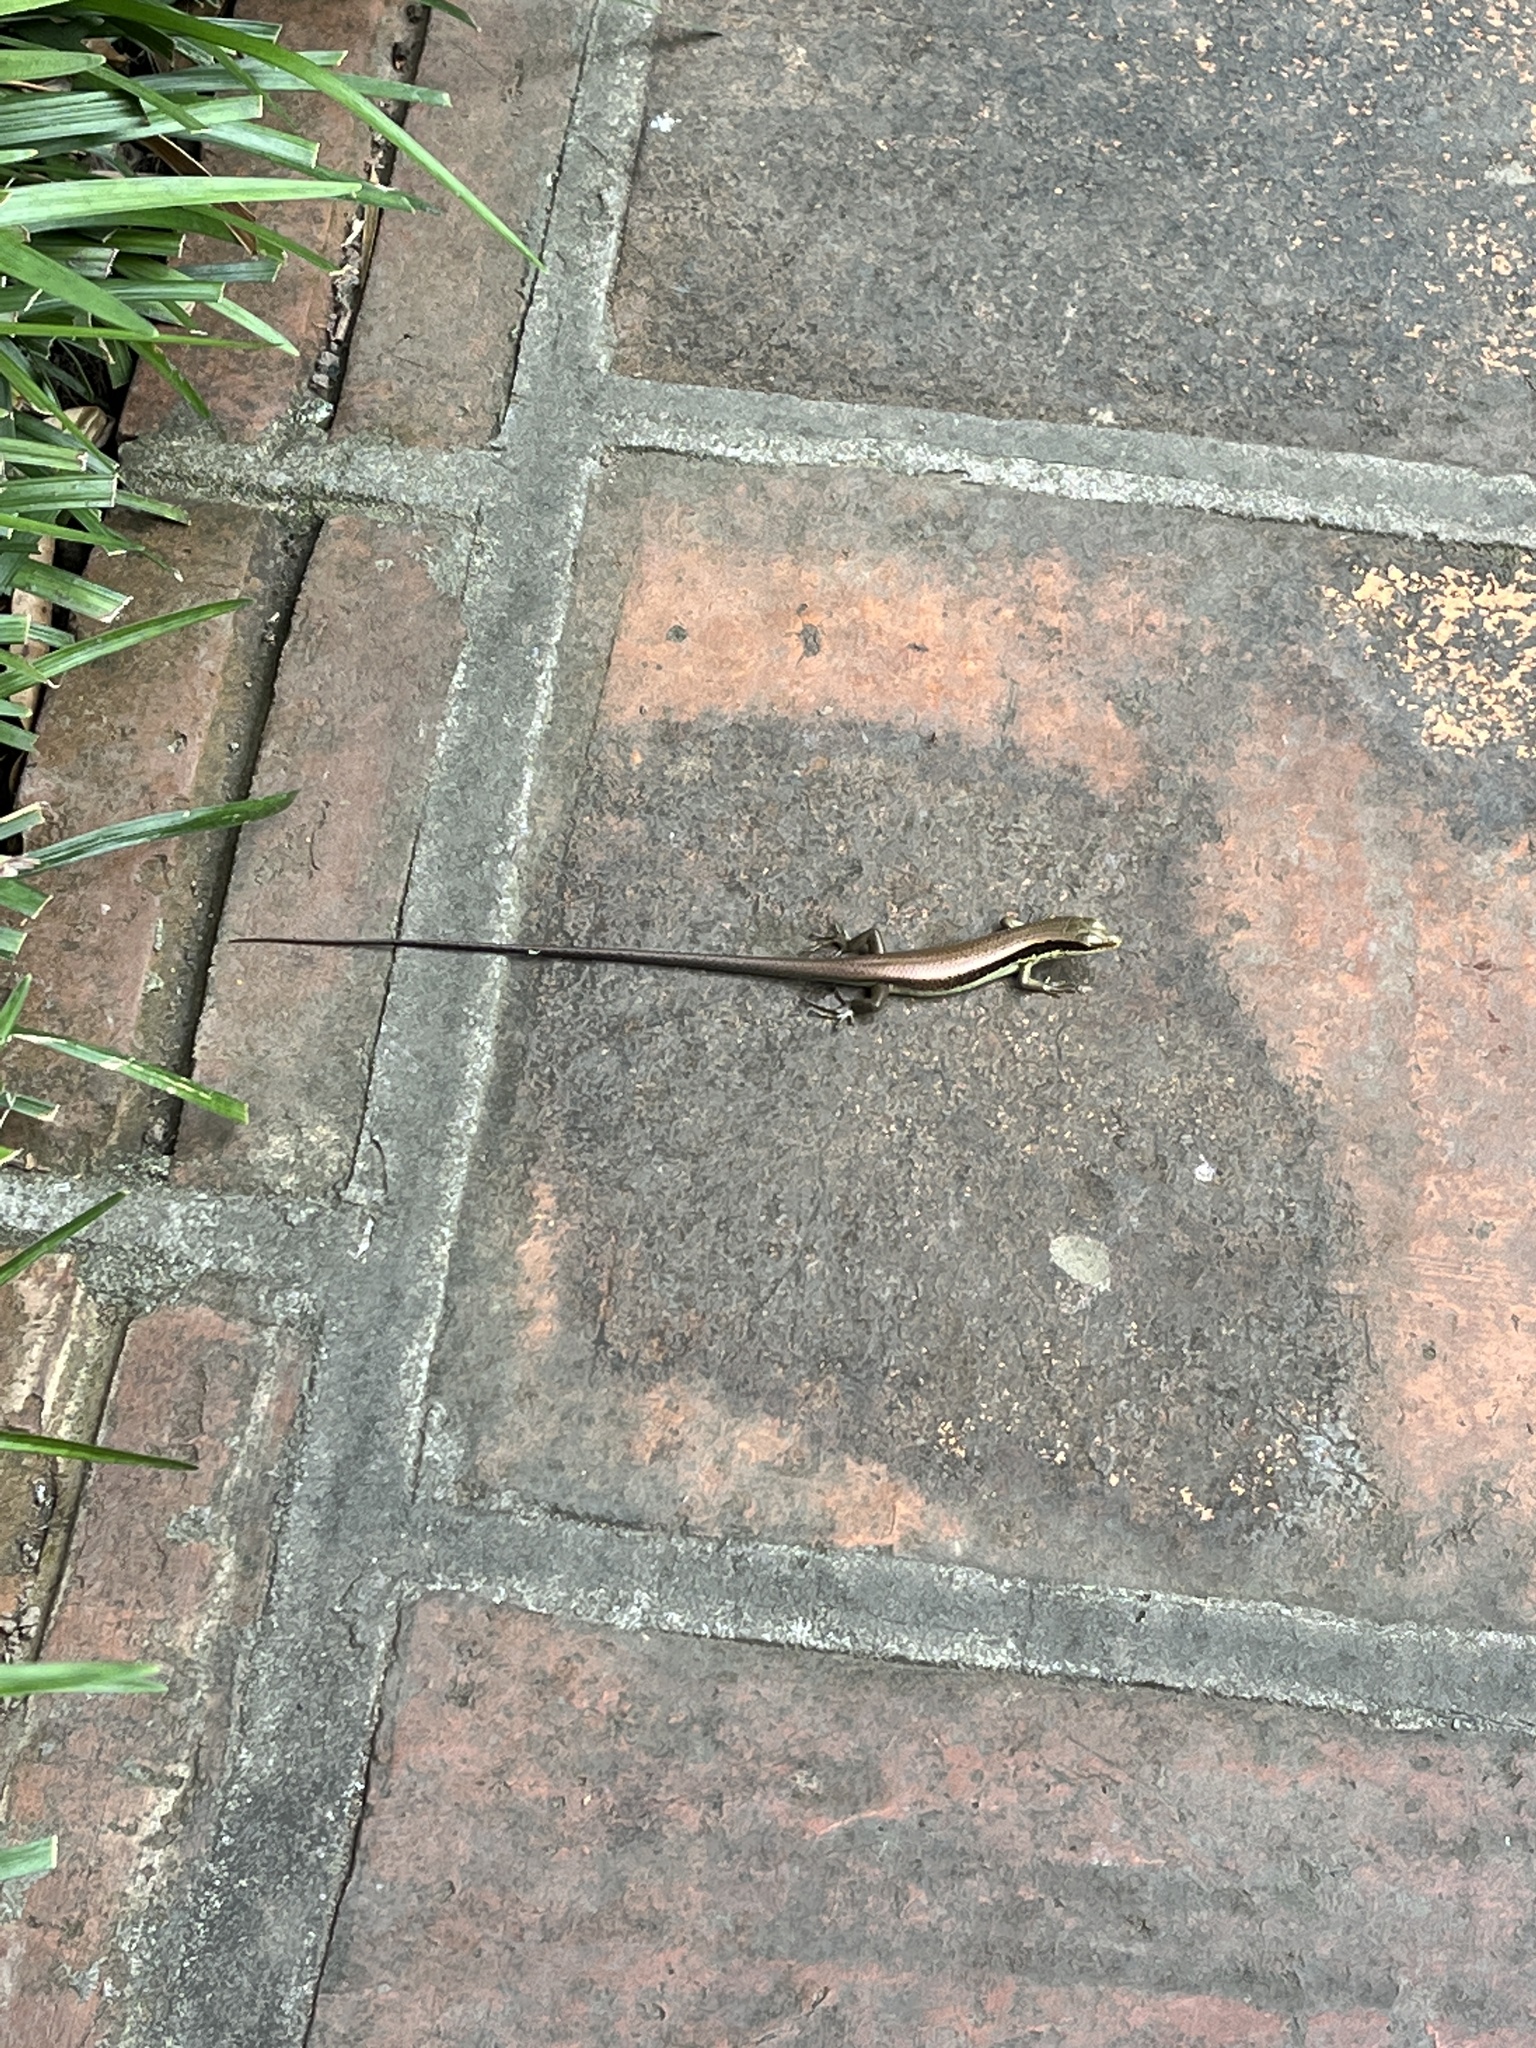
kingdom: Animalia
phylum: Chordata
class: Squamata
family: Scincidae
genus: Eutropis
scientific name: Eutropis longicaudata
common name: Long-tailed sun skink
